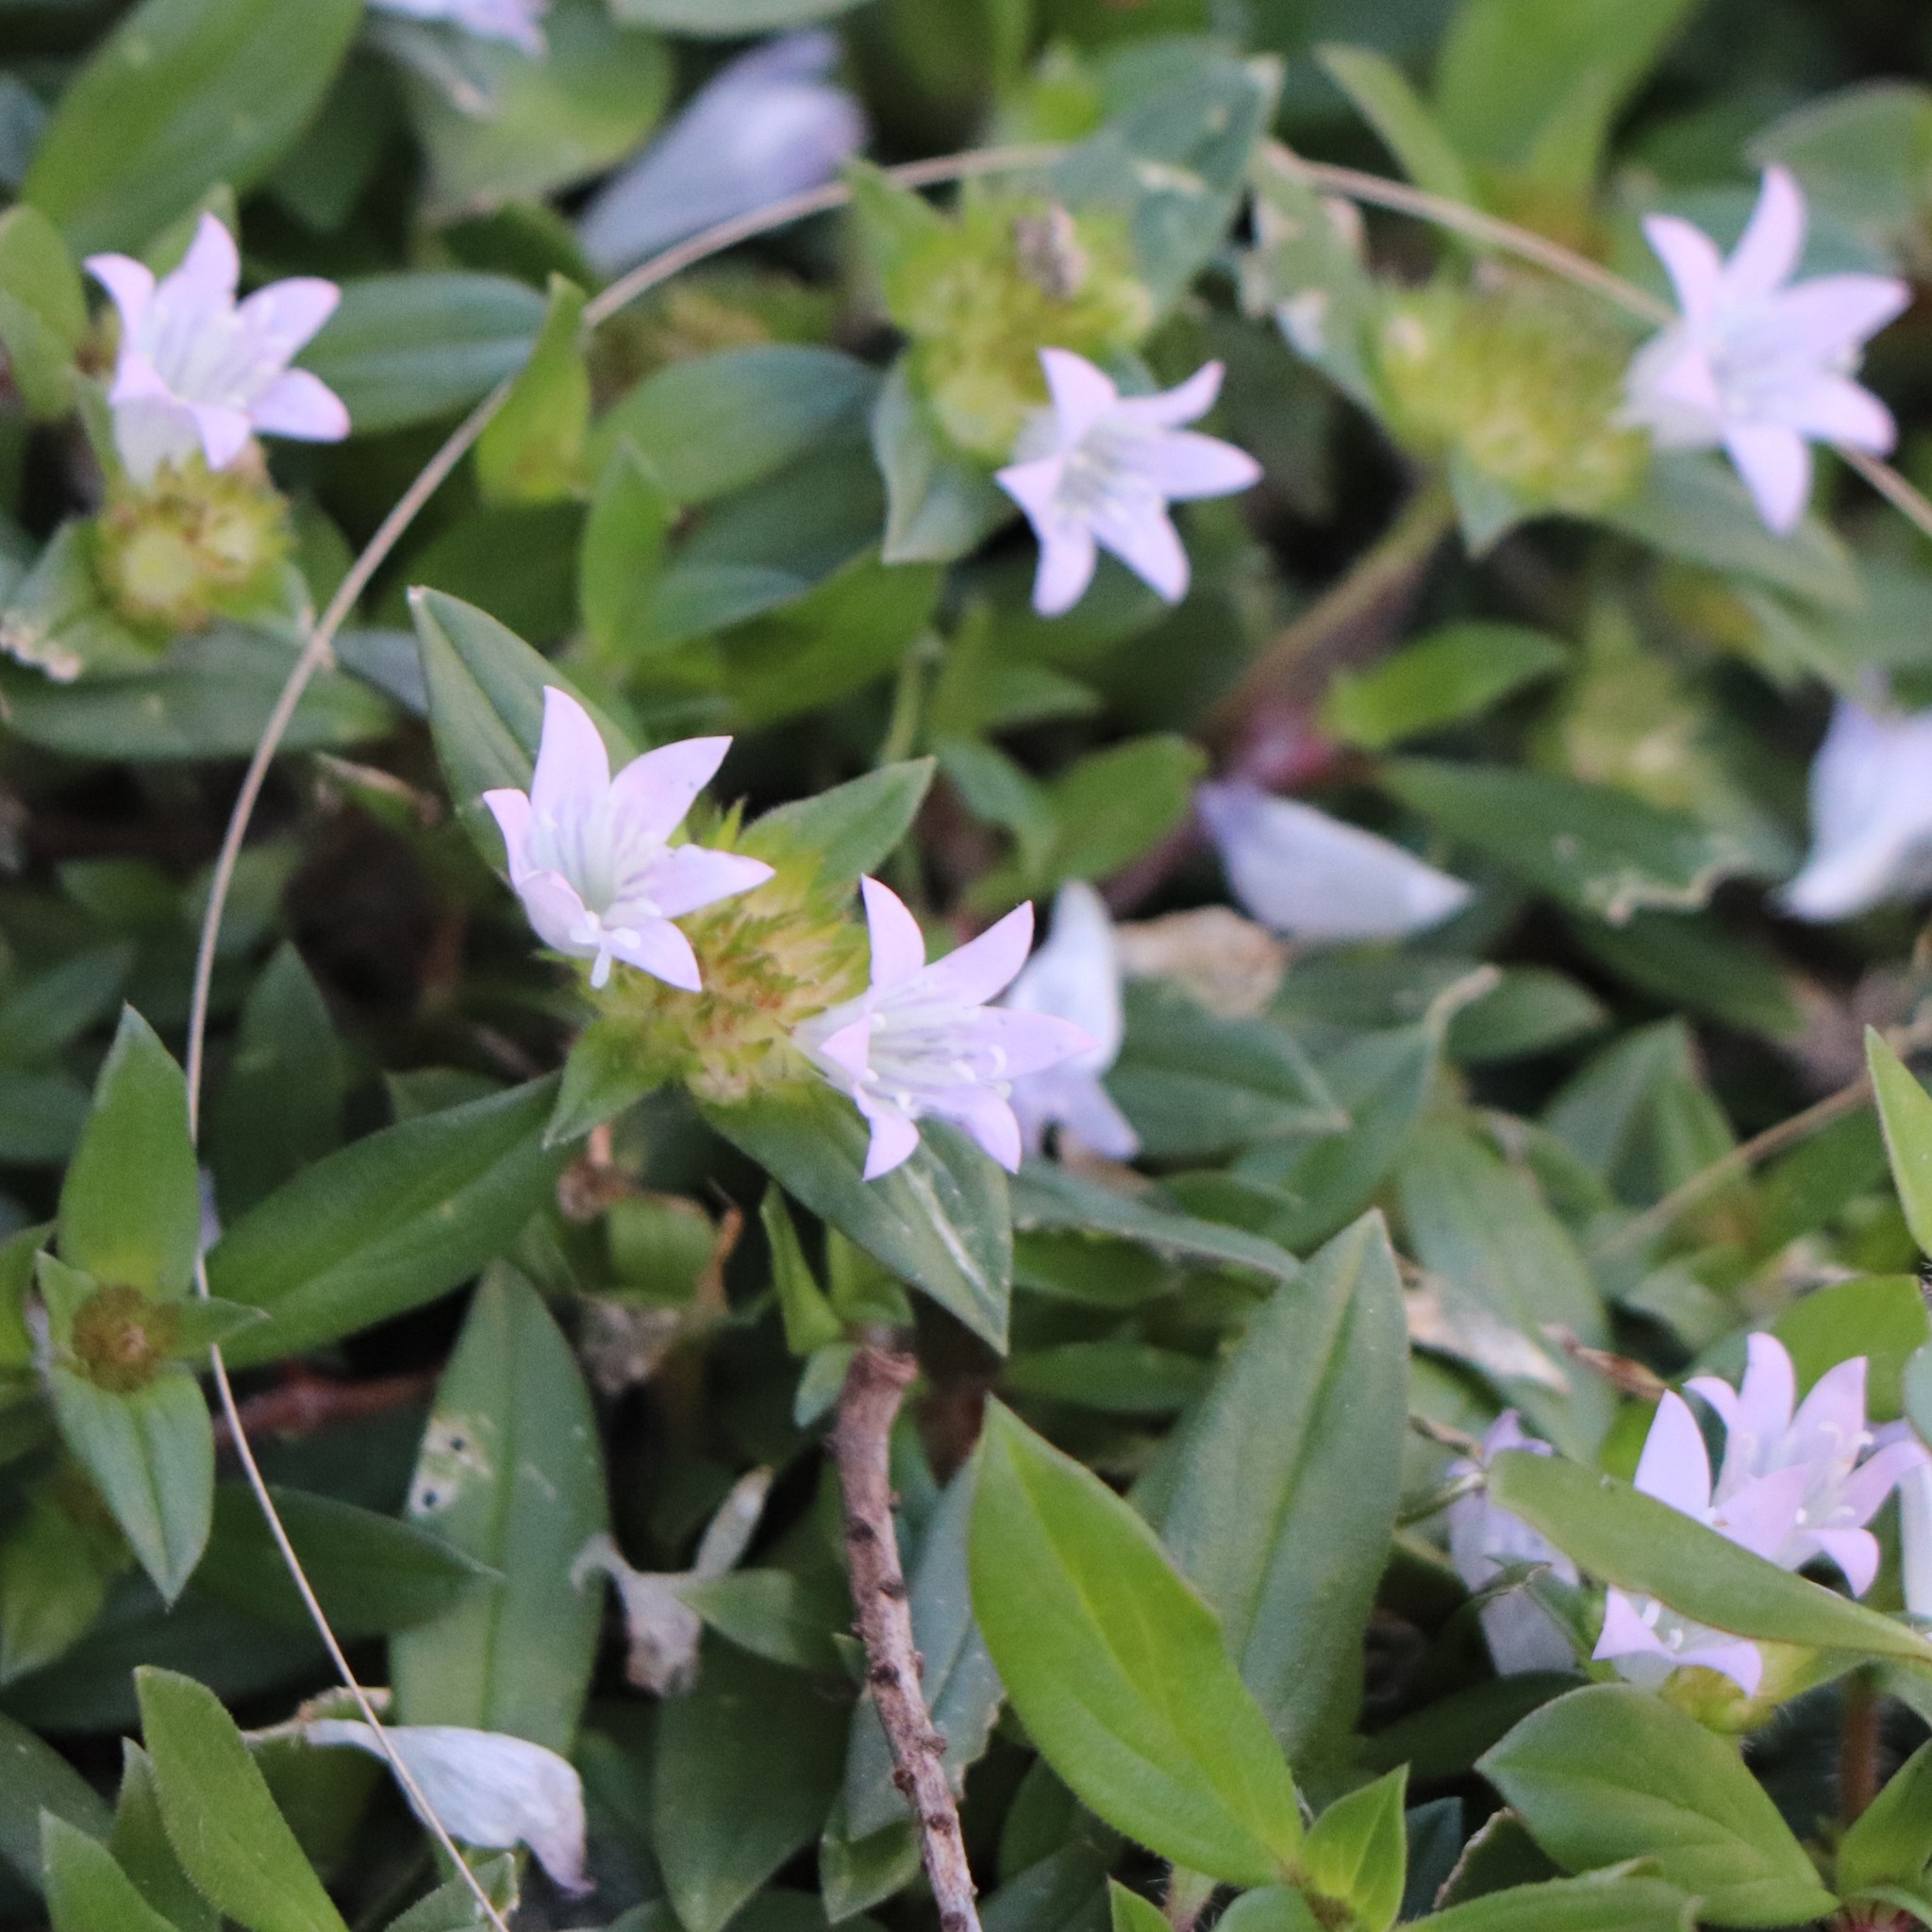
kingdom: Plantae
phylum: Tracheophyta
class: Magnoliopsida
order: Gentianales
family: Rubiaceae
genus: Richardia
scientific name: Richardia grandiflora
